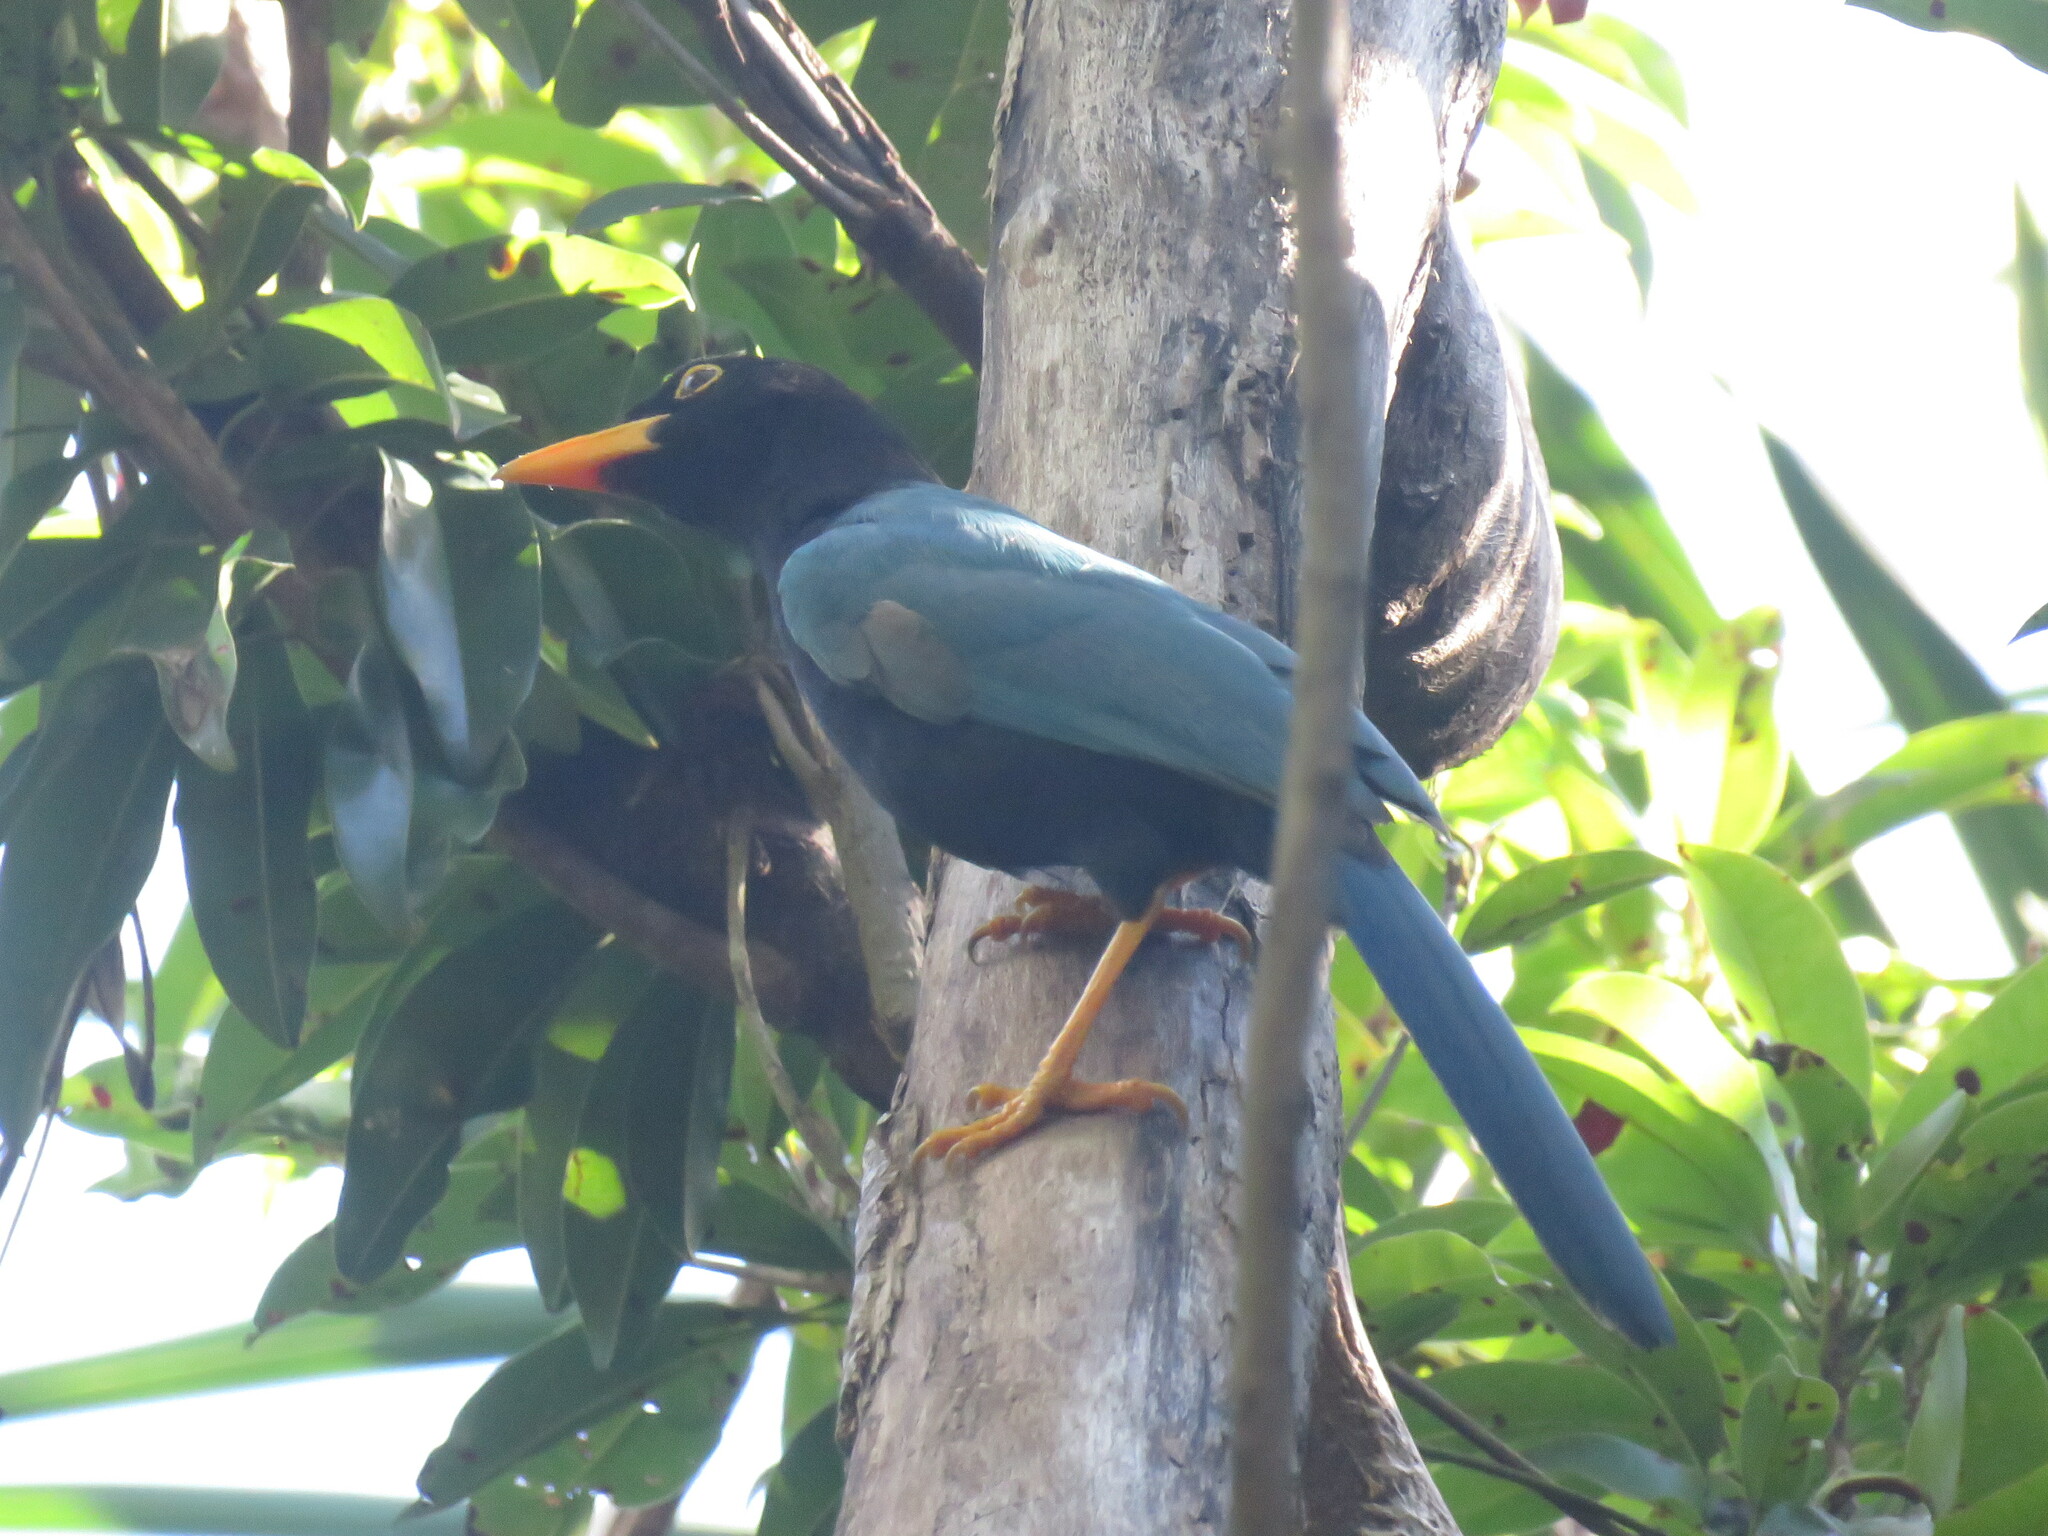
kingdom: Animalia
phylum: Chordata
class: Aves
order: Passeriformes
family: Corvidae
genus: Cyanocorax
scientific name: Cyanocorax yucatanicus
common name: Yucatan jay
